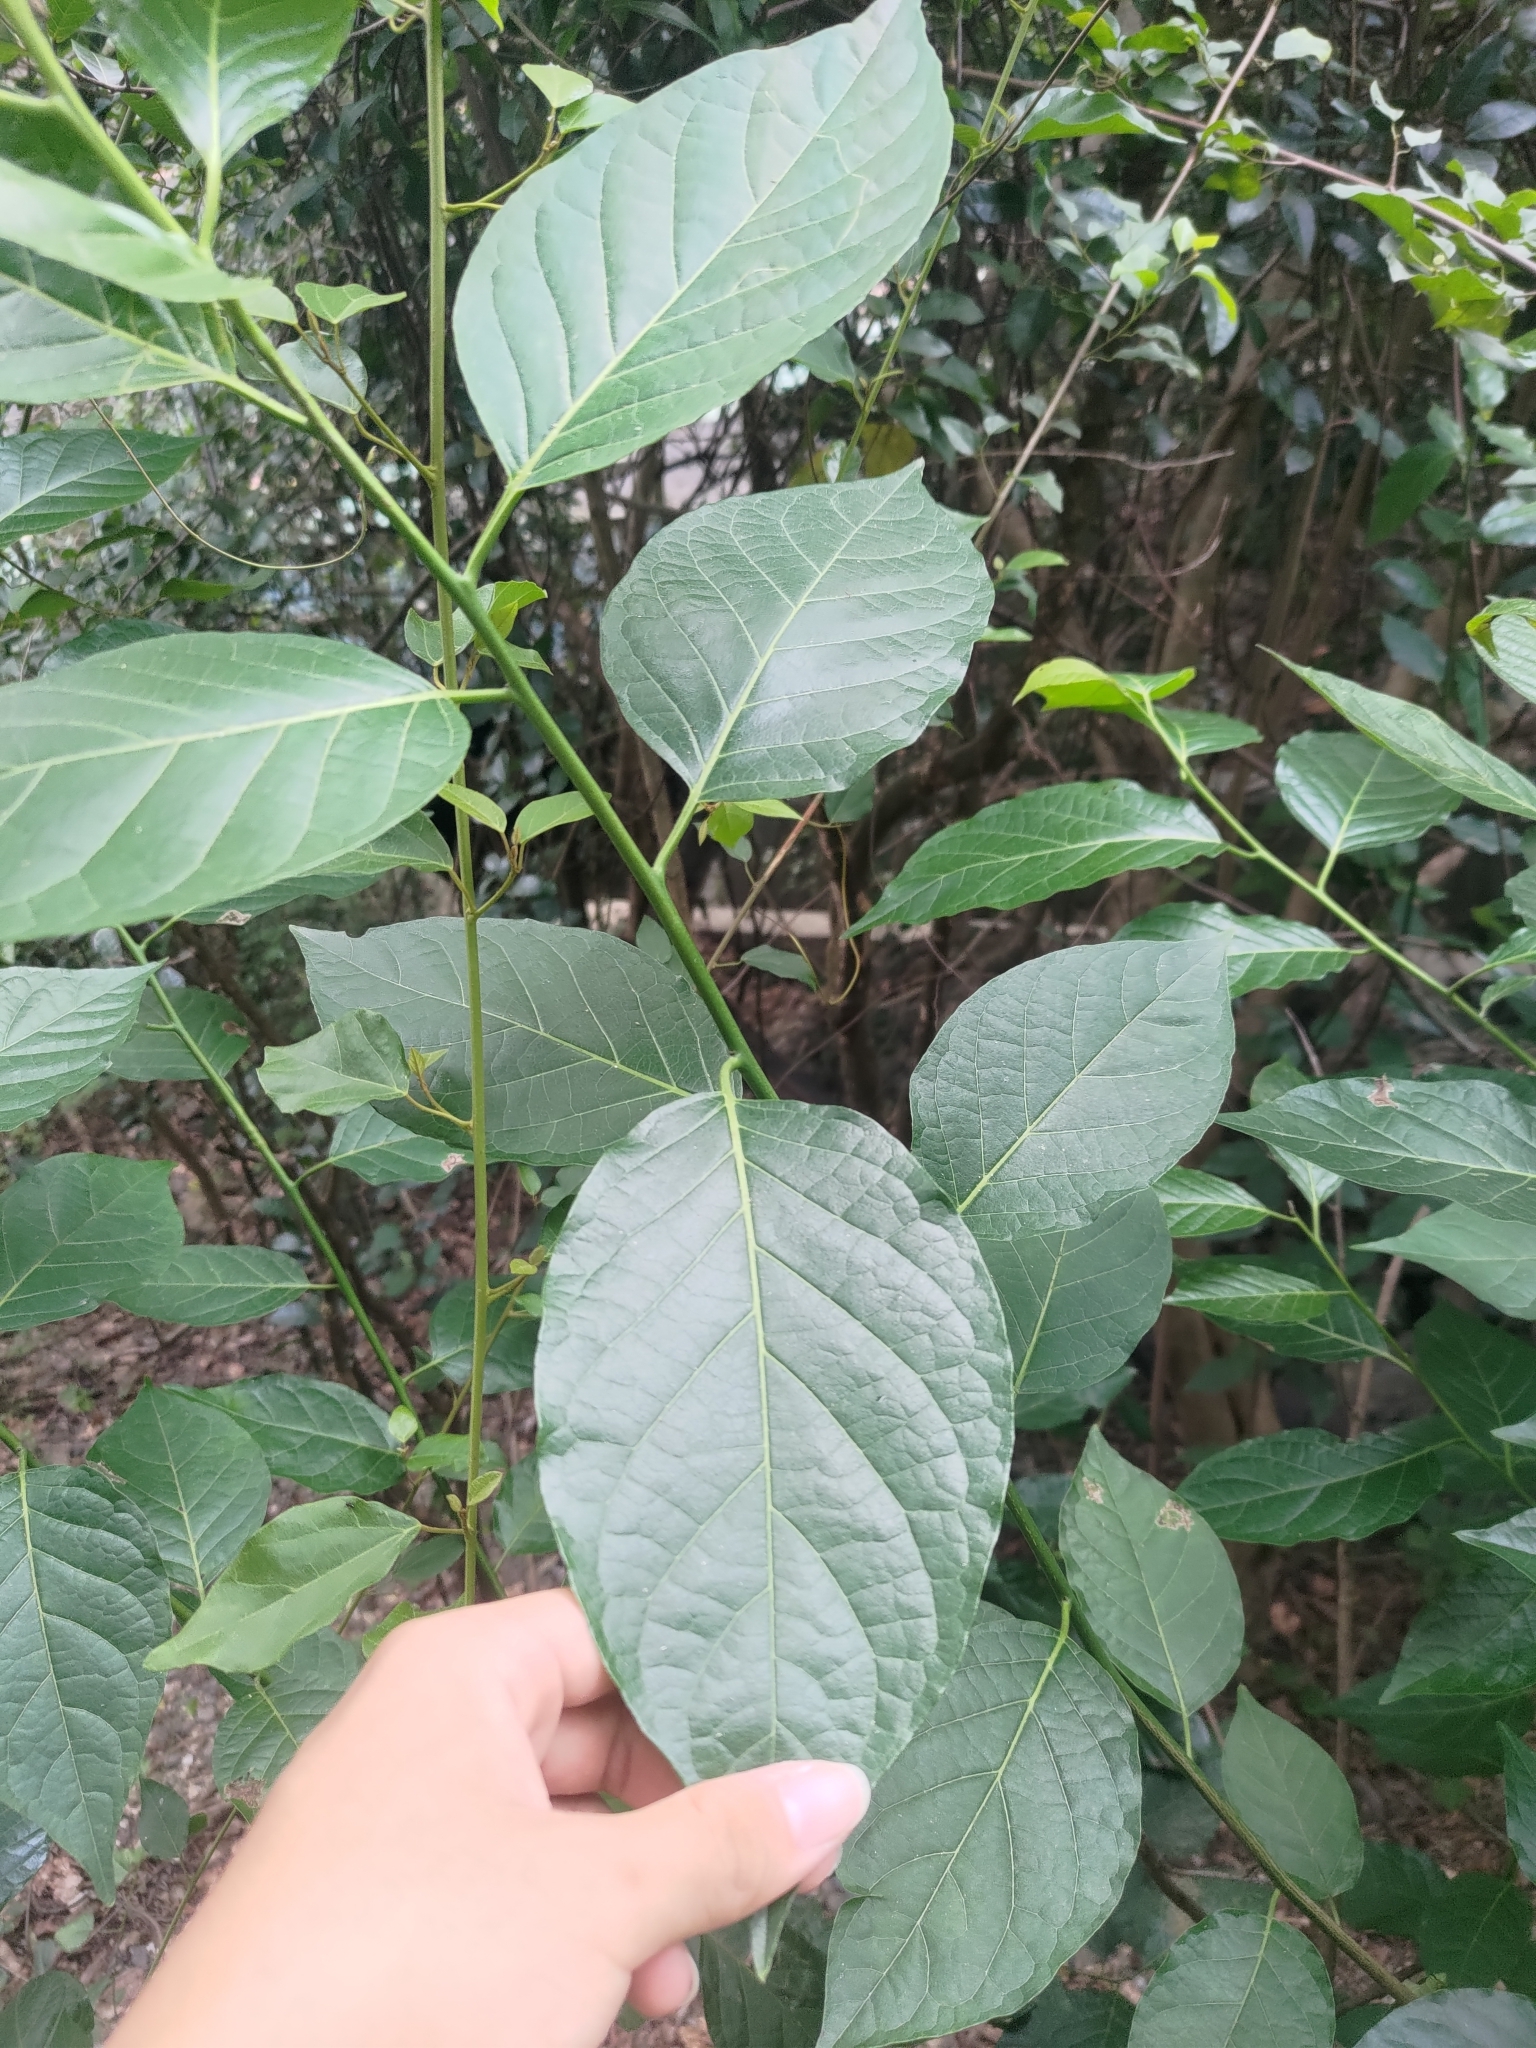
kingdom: Plantae
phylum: Tracheophyta
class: Magnoliopsida
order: Boraginales
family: Ehretiaceae
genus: Ehretia
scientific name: Ehretia resinosa
